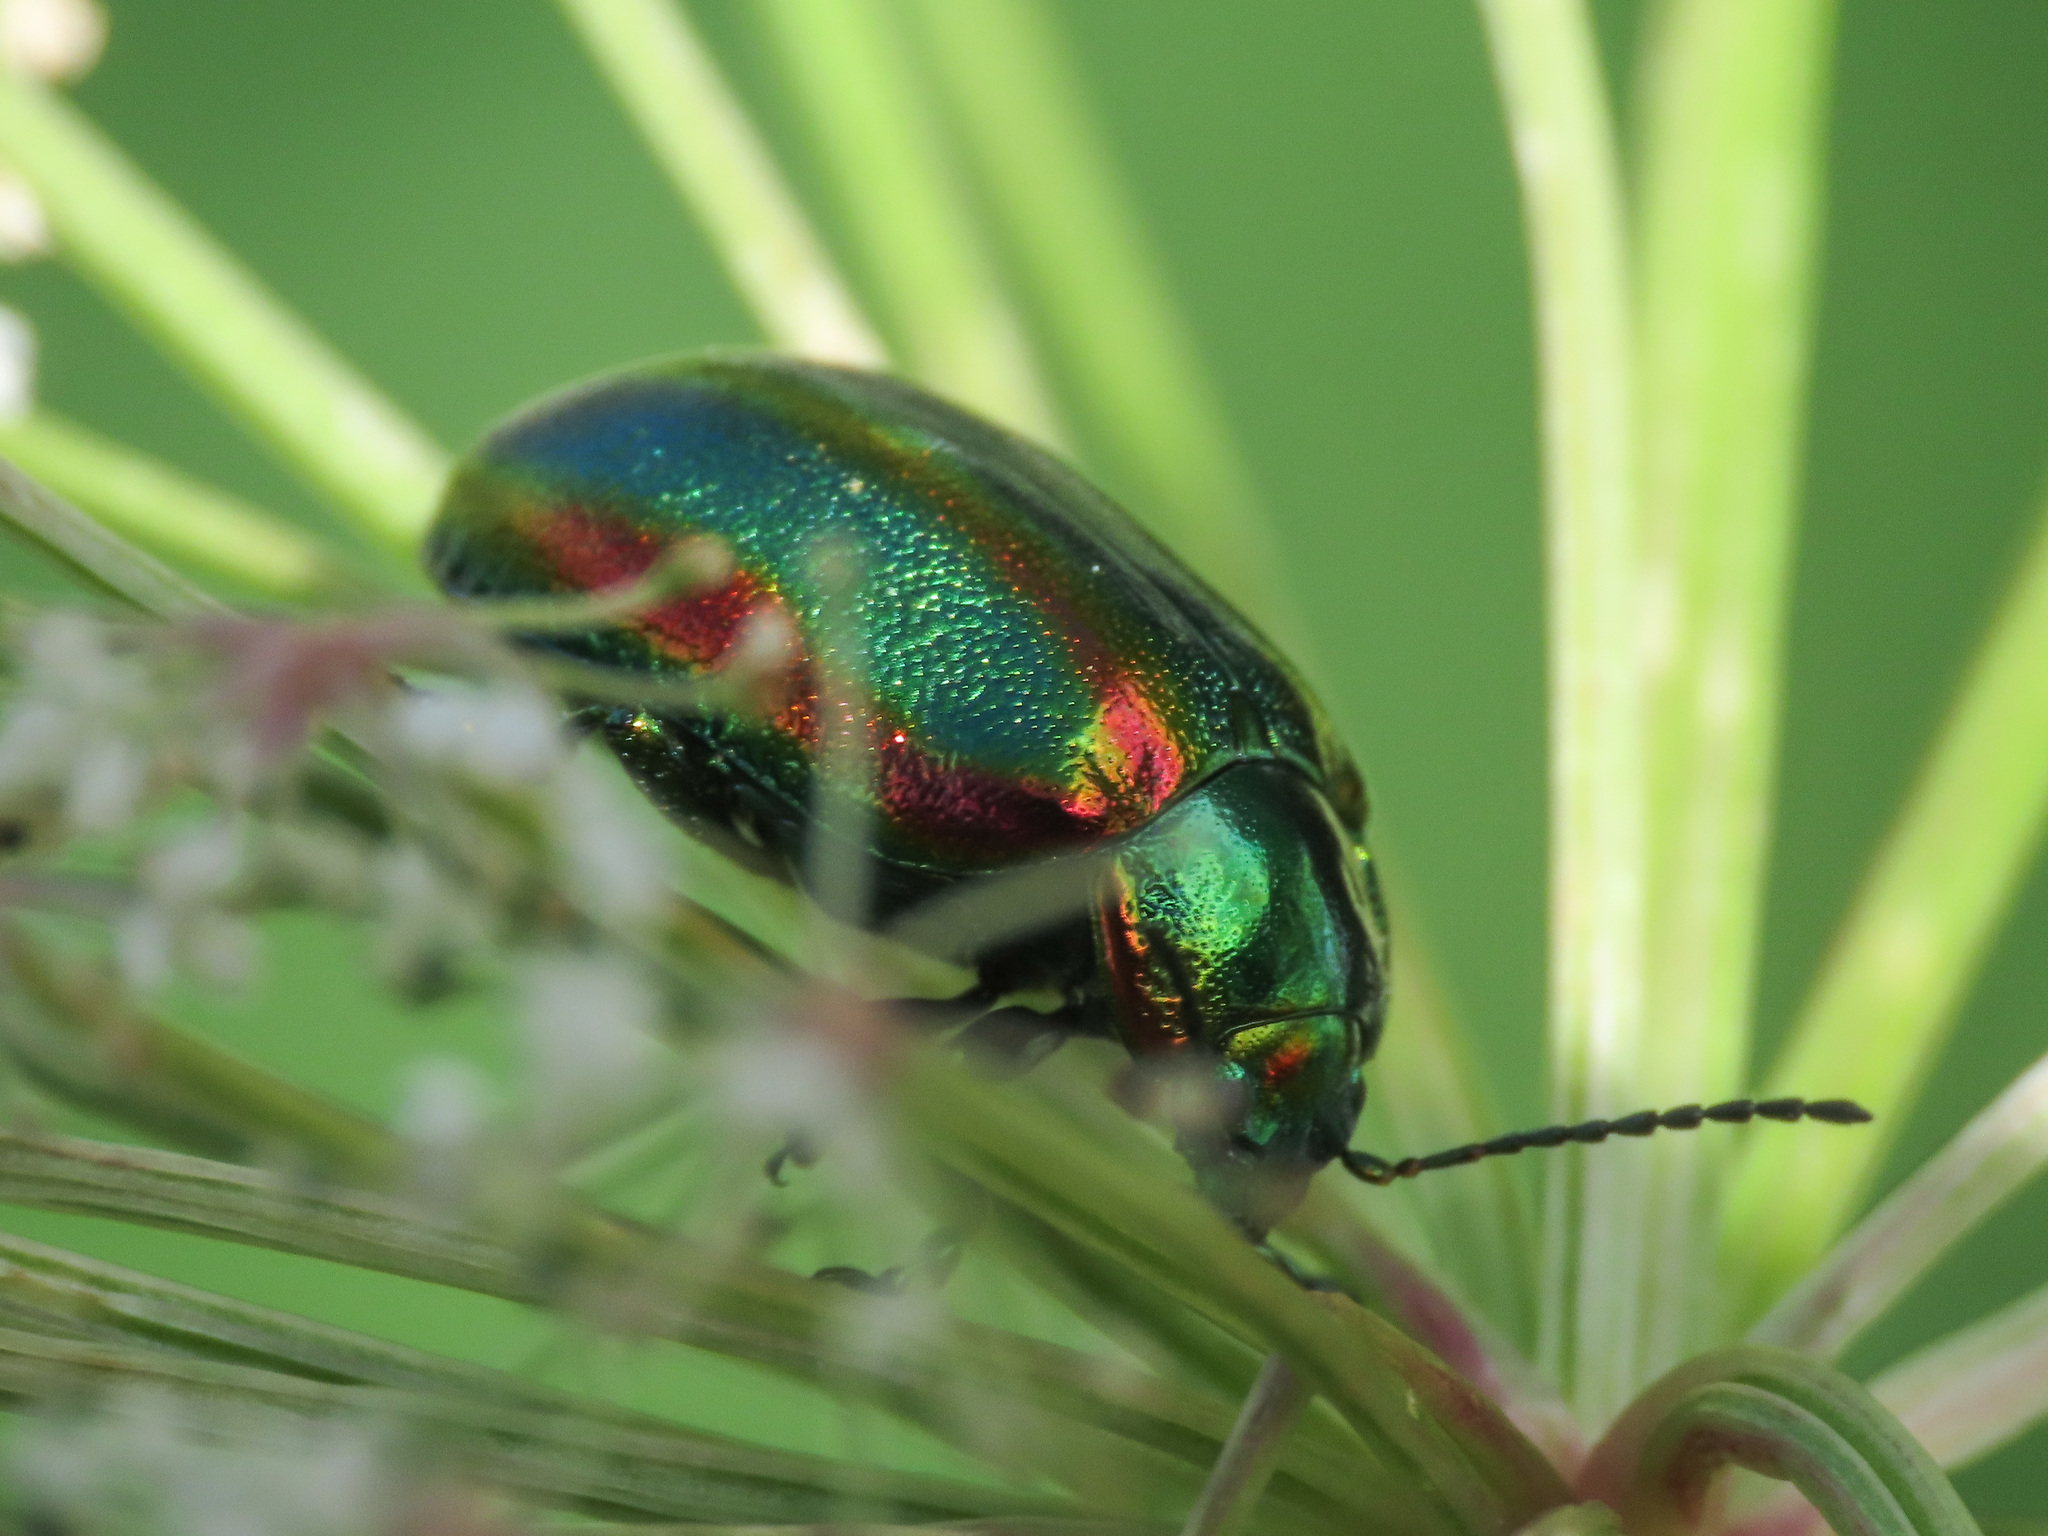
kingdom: Animalia
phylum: Arthropoda
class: Insecta
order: Coleoptera
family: Chrysomelidae
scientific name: Chrysomelidae
